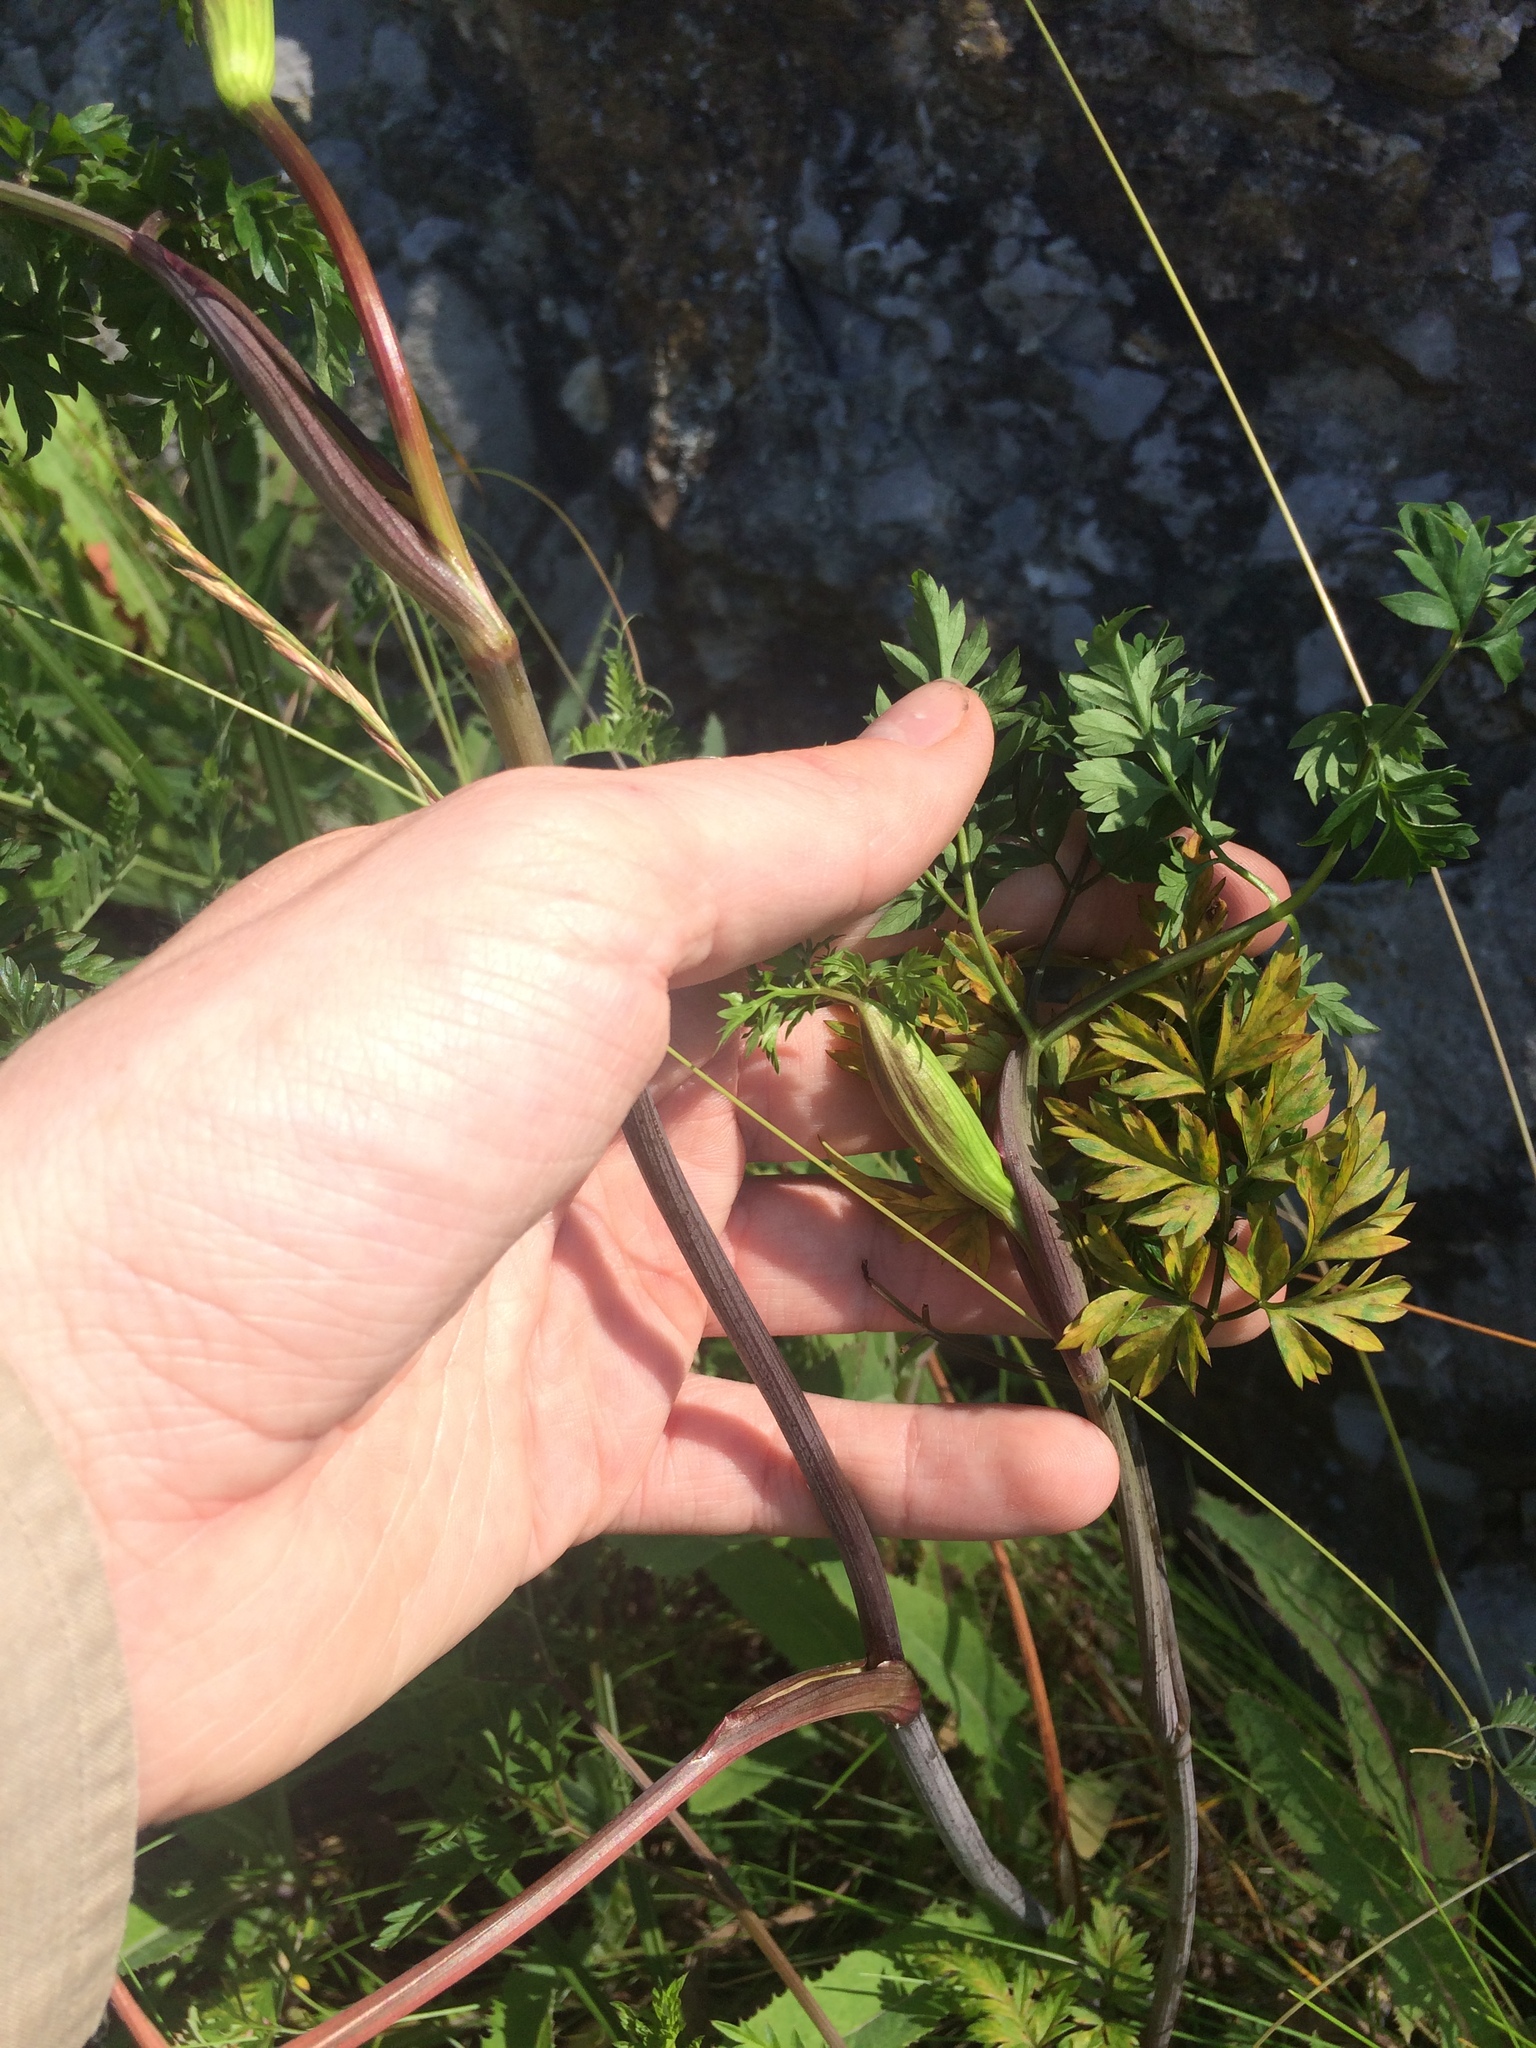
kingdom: Plantae
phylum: Tracheophyta
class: Magnoliopsida
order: Apiales
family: Apiaceae
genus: Kreidion
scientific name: Kreidion chinensis
